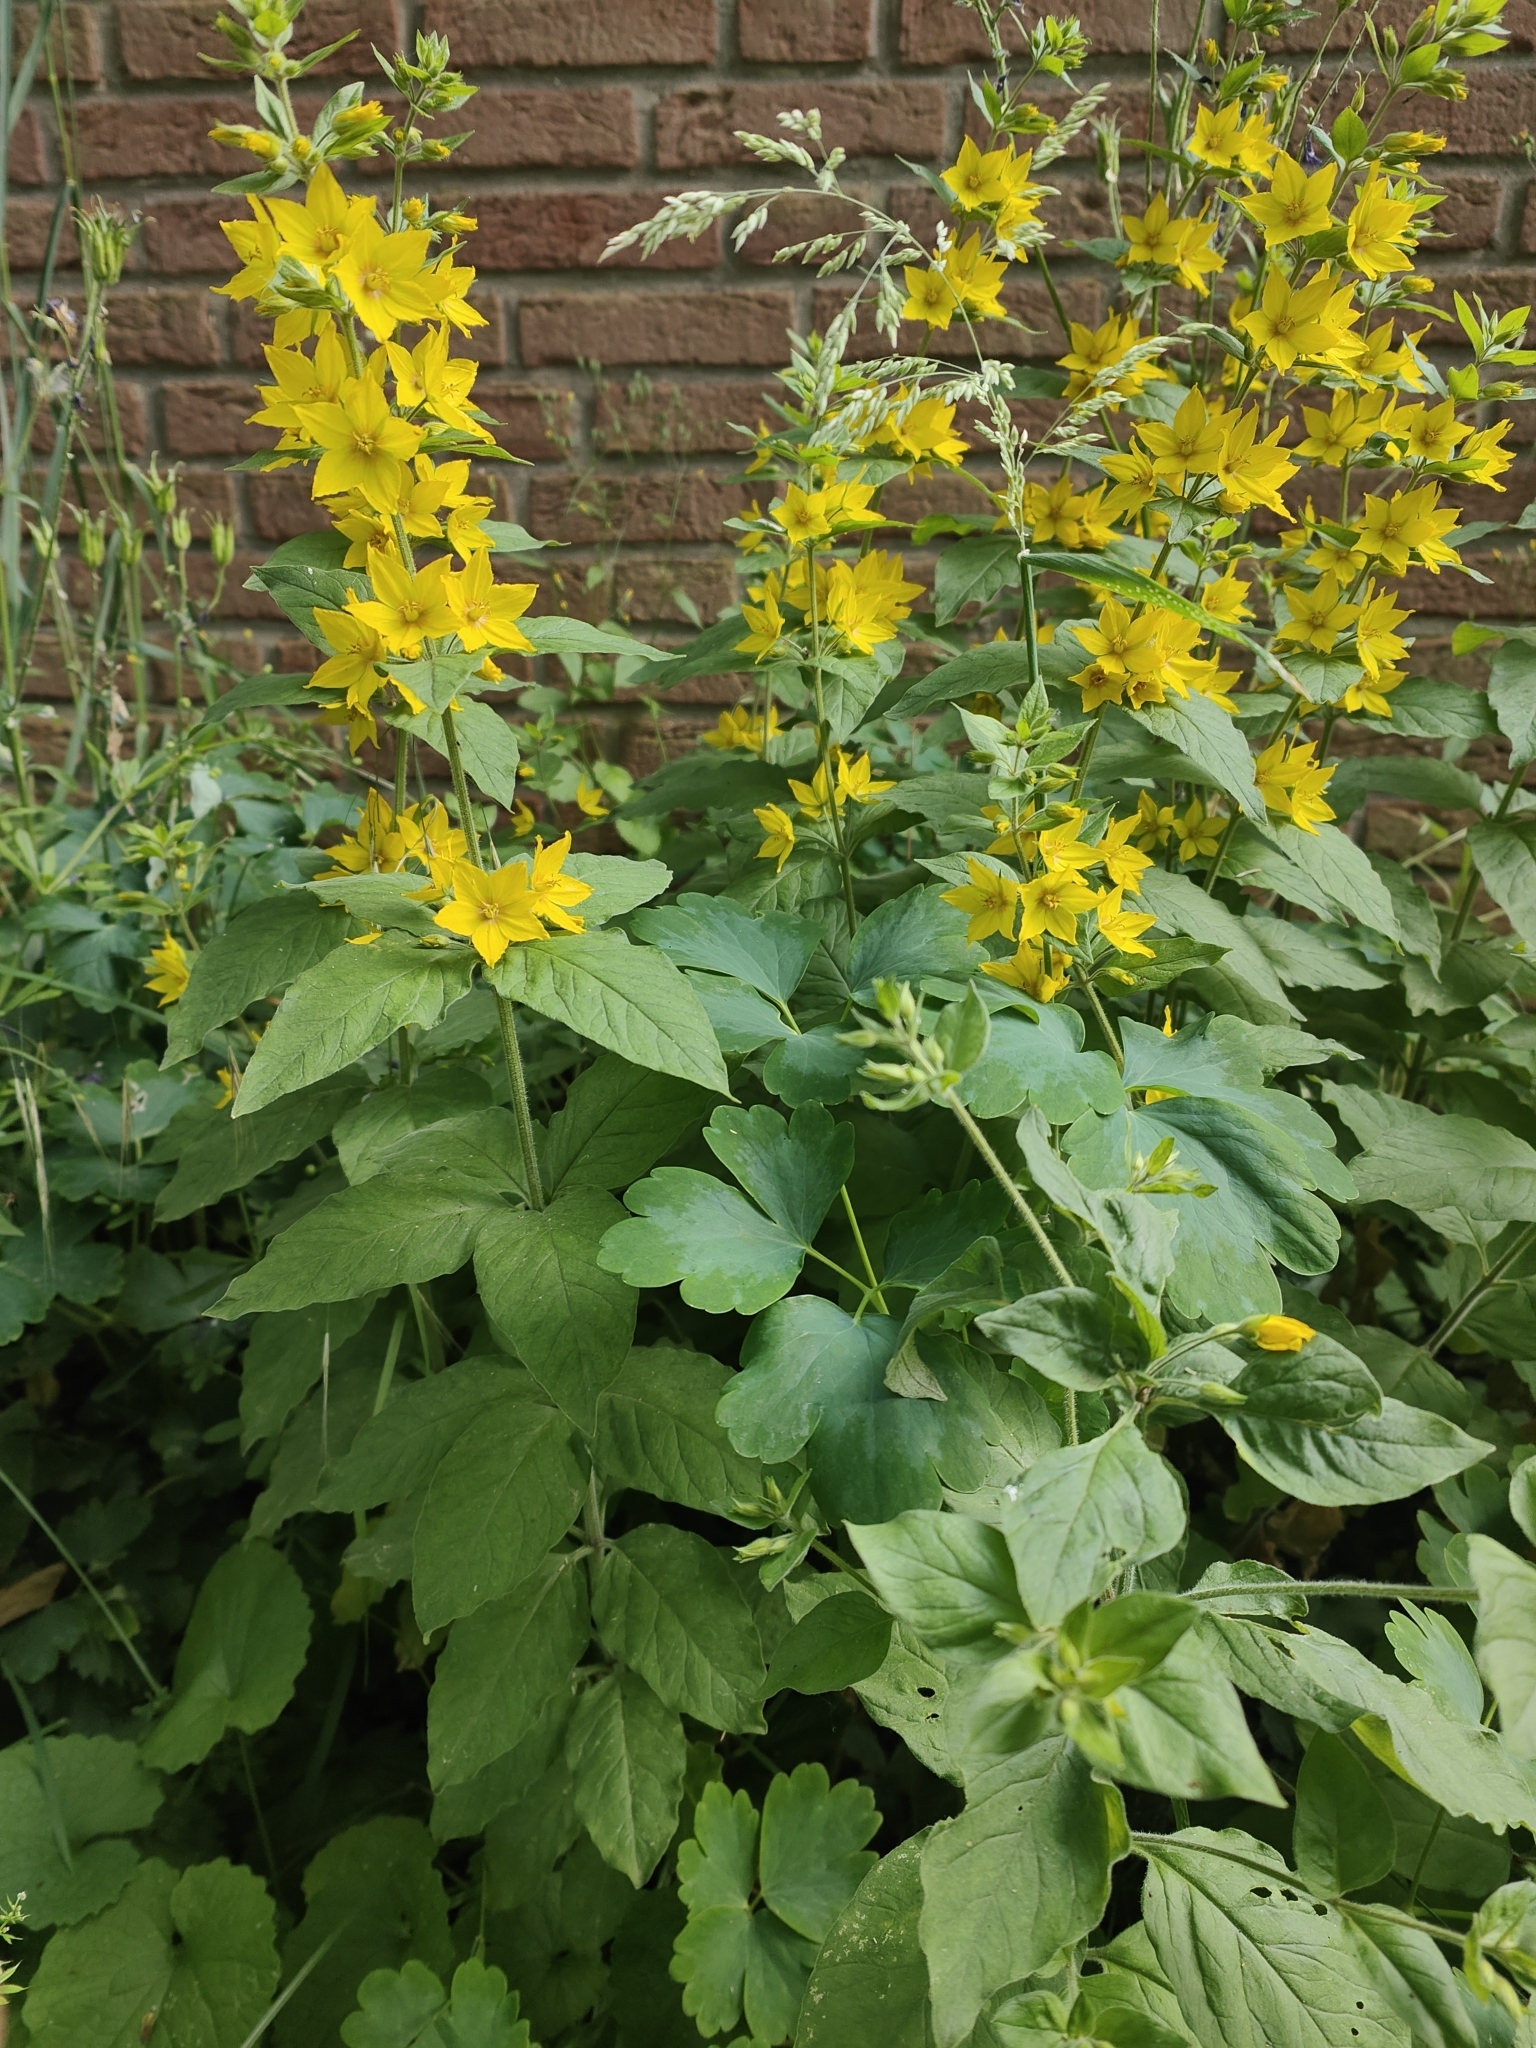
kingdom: Plantae
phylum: Tracheophyta
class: Magnoliopsida
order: Ericales
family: Primulaceae
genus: Lysimachia
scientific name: Lysimachia punctata
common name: Dotted loosestrife
